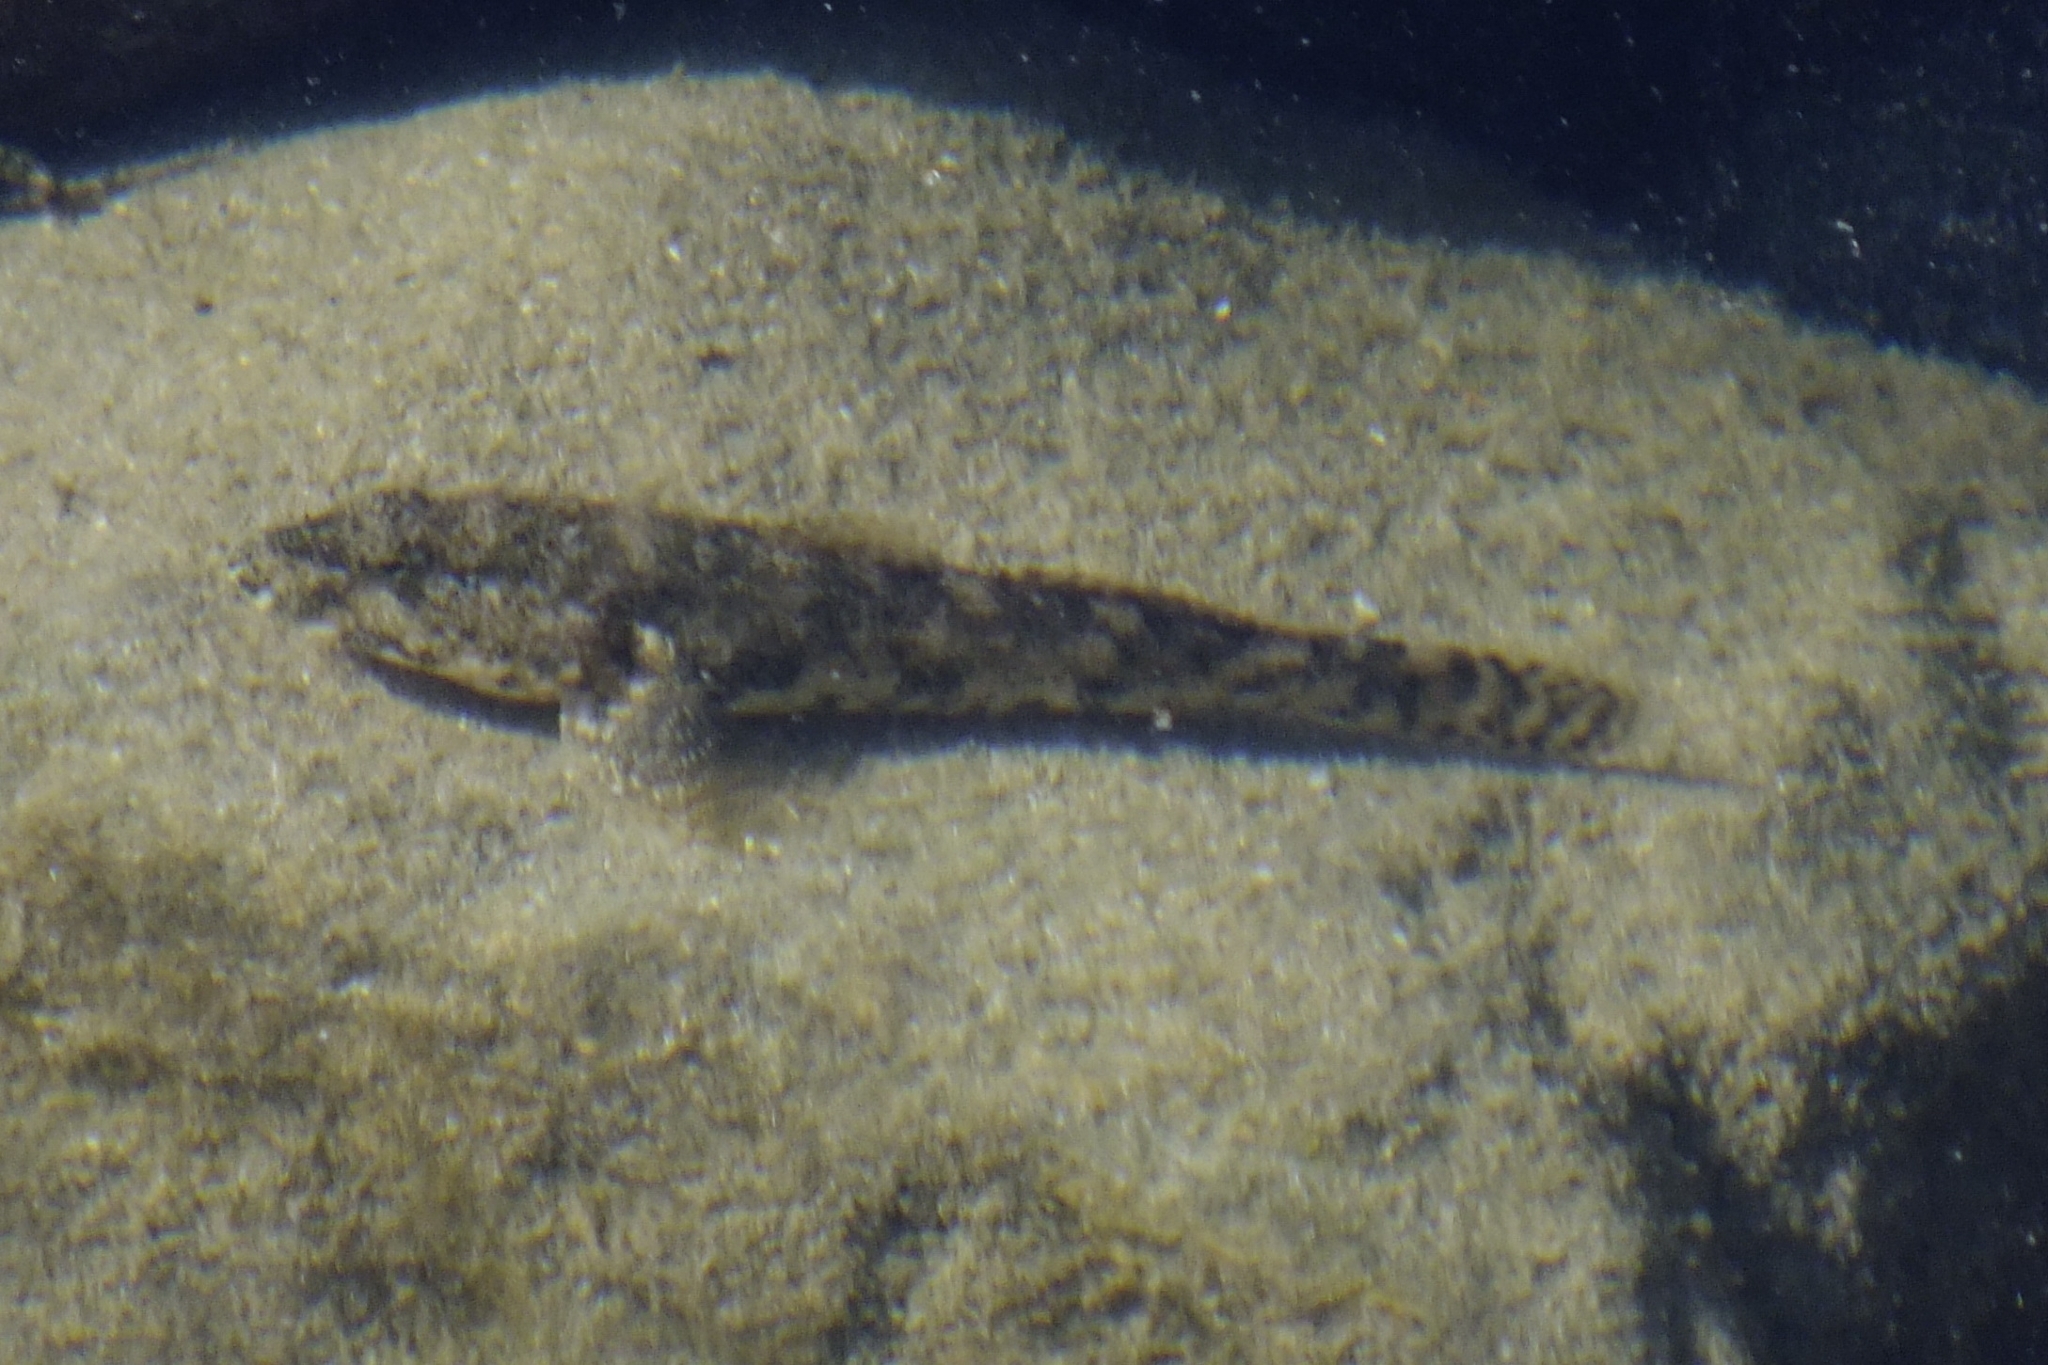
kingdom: Animalia
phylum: Chordata
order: Perciformes
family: Gobiidae
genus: Gobius
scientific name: Gobius cobitis
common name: Giant goby
